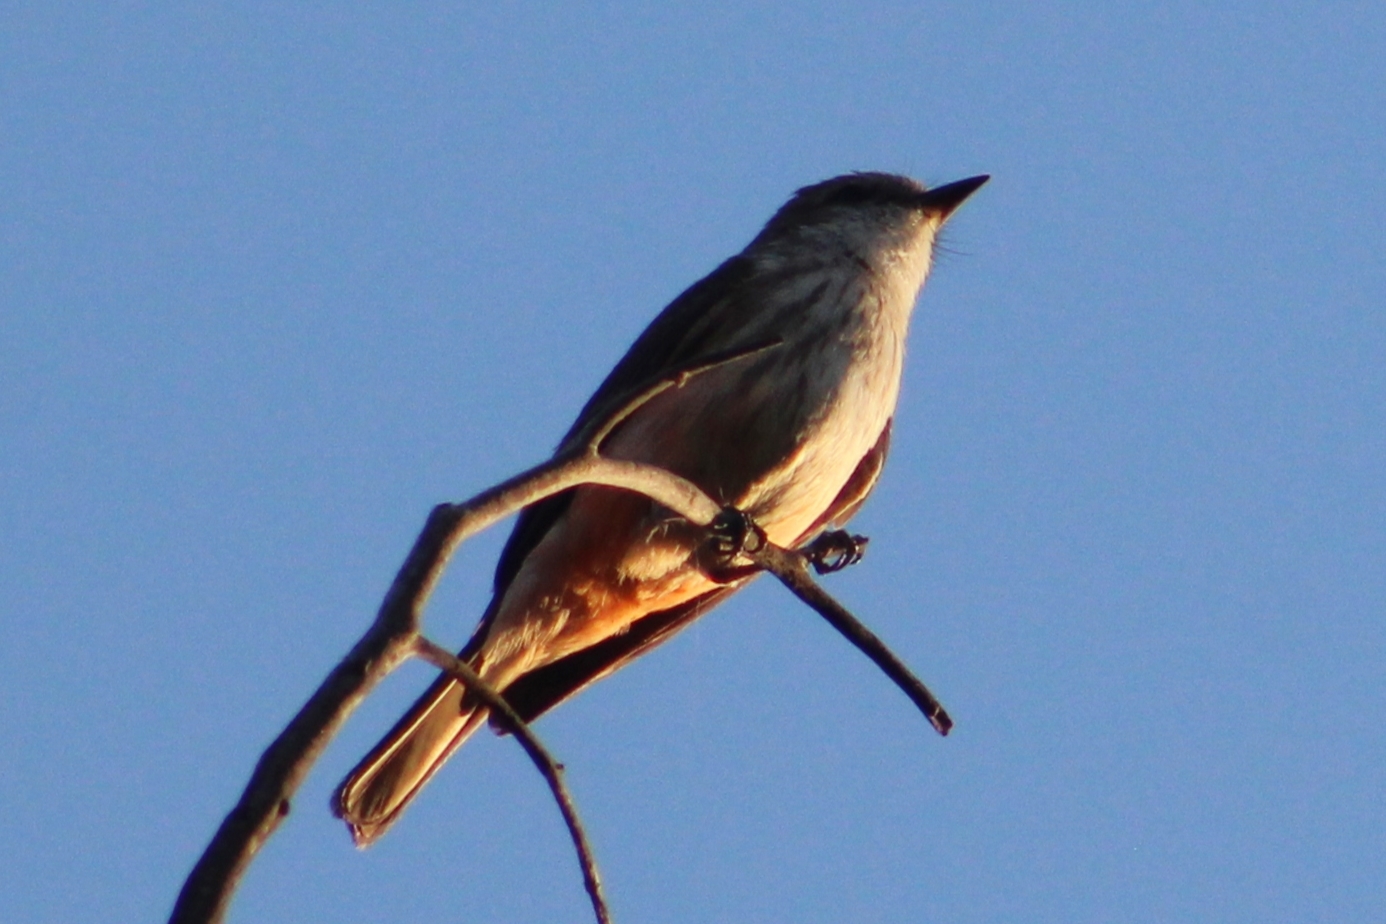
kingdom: Animalia
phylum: Chordata
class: Aves
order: Passeriformes
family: Tyrannidae
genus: Pyrocephalus
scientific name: Pyrocephalus rubinus
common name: Vermilion flycatcher
